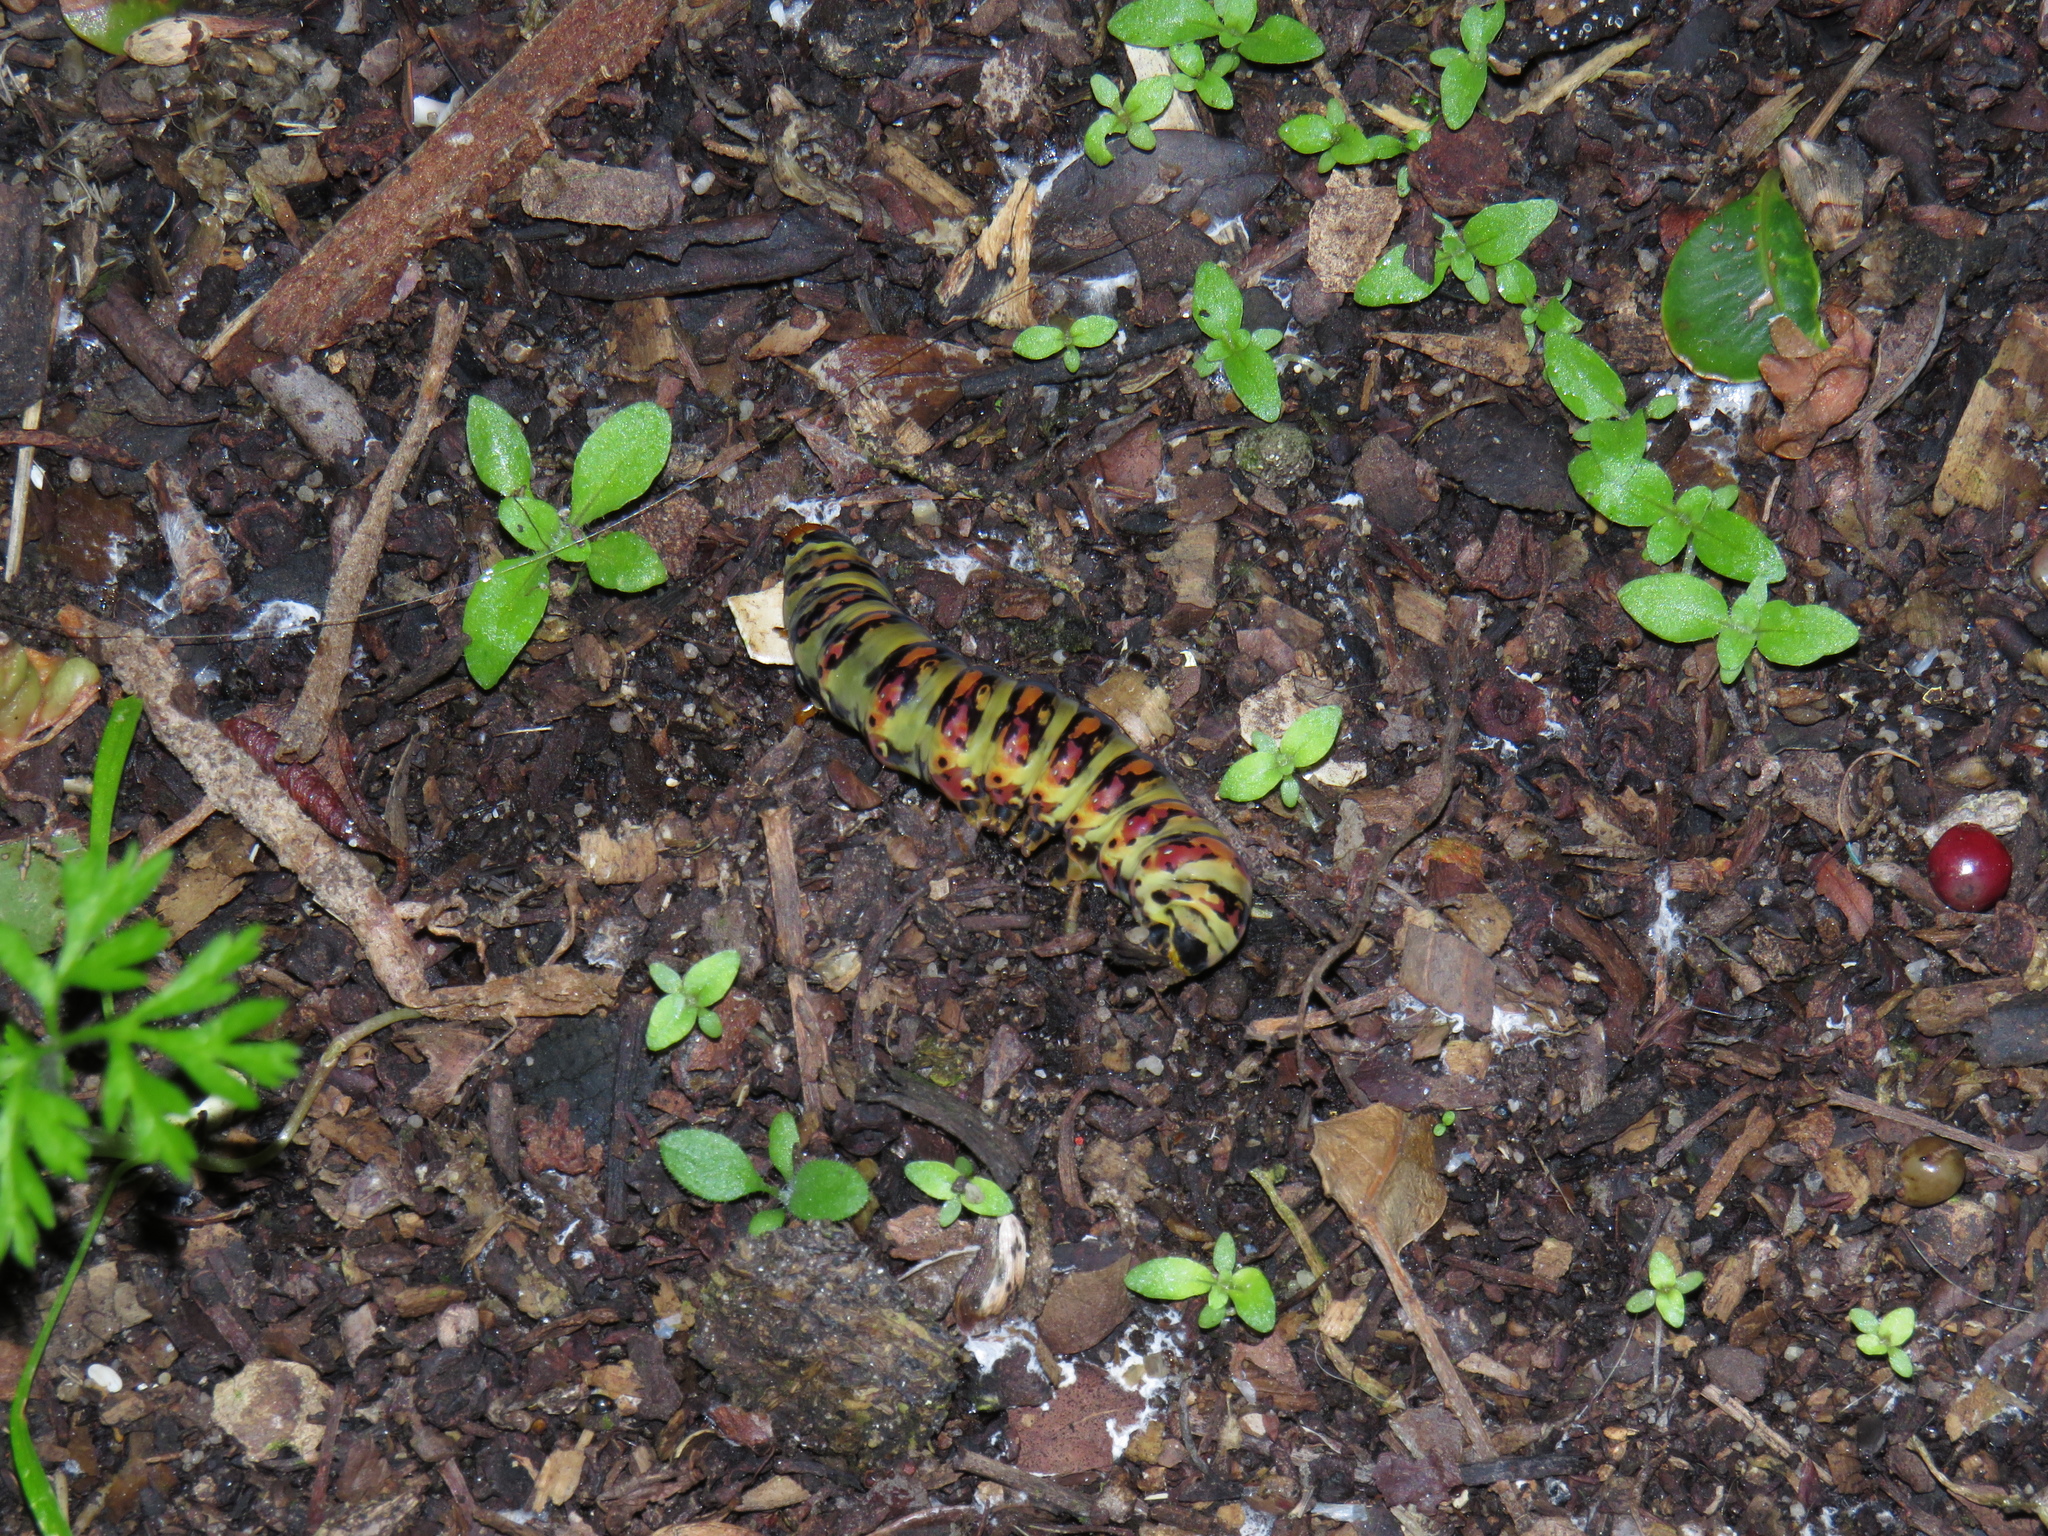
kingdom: Animalia
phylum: Arthropoda
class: Insecta
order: Lepidoptera
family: Noctuidae
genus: Klugeana
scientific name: Klugeana philoxalis
